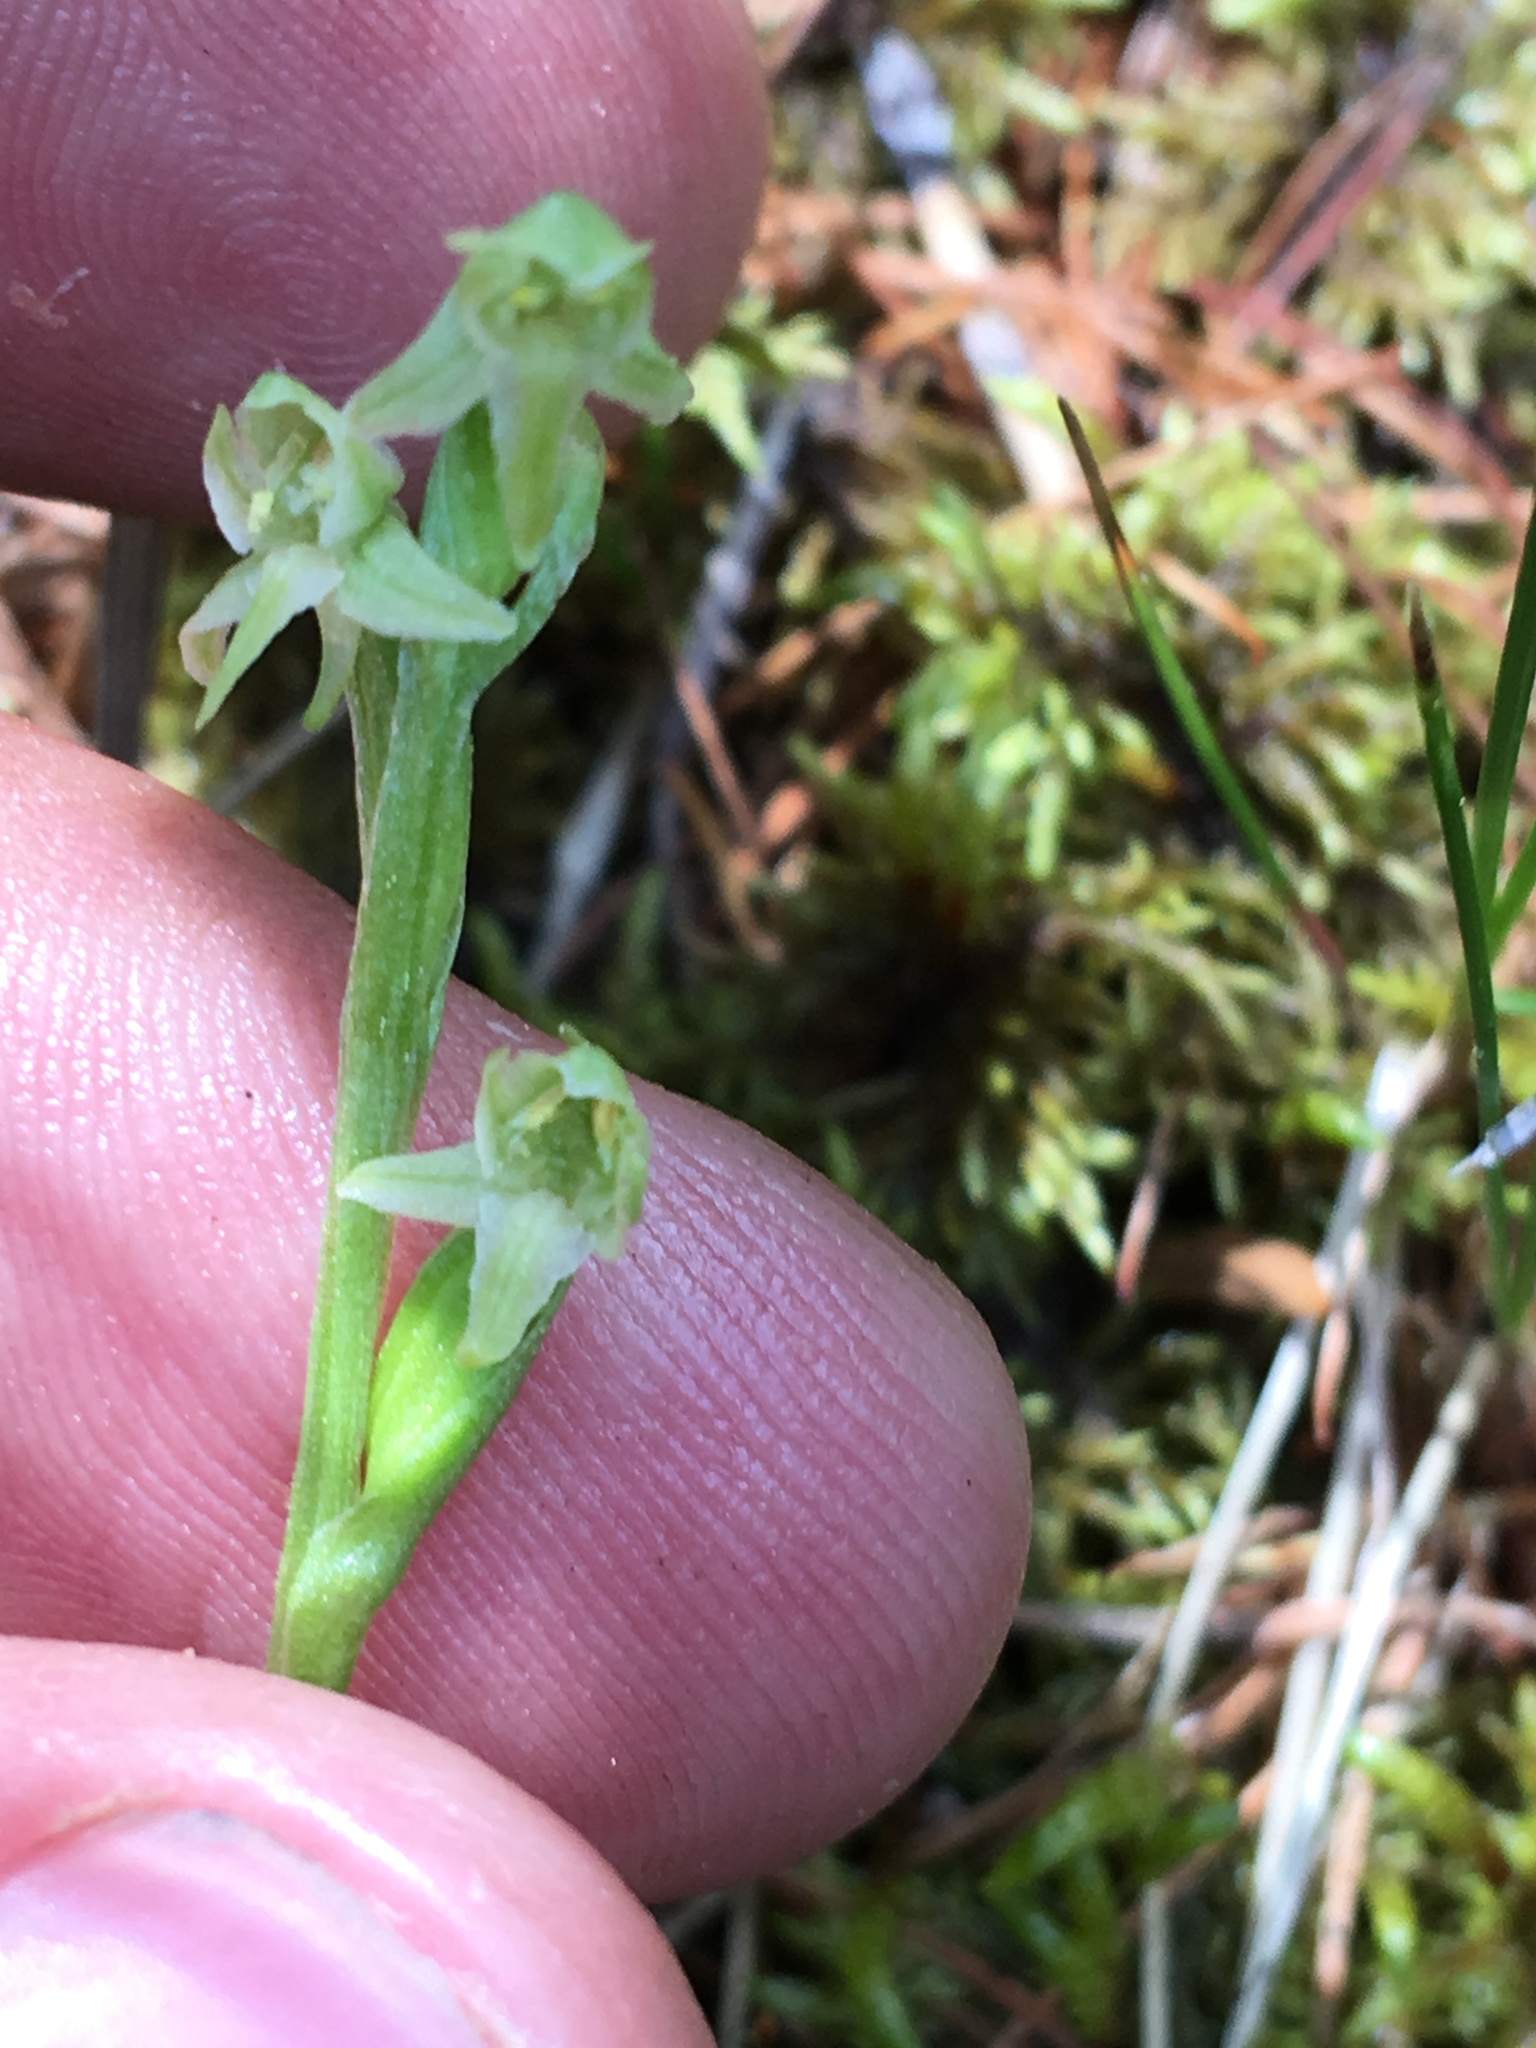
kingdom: Plantae
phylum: Tracheophyta
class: Liliopsida
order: Asparagales
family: Orchidaceae
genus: Platanthera
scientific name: Platanthera oligantha
